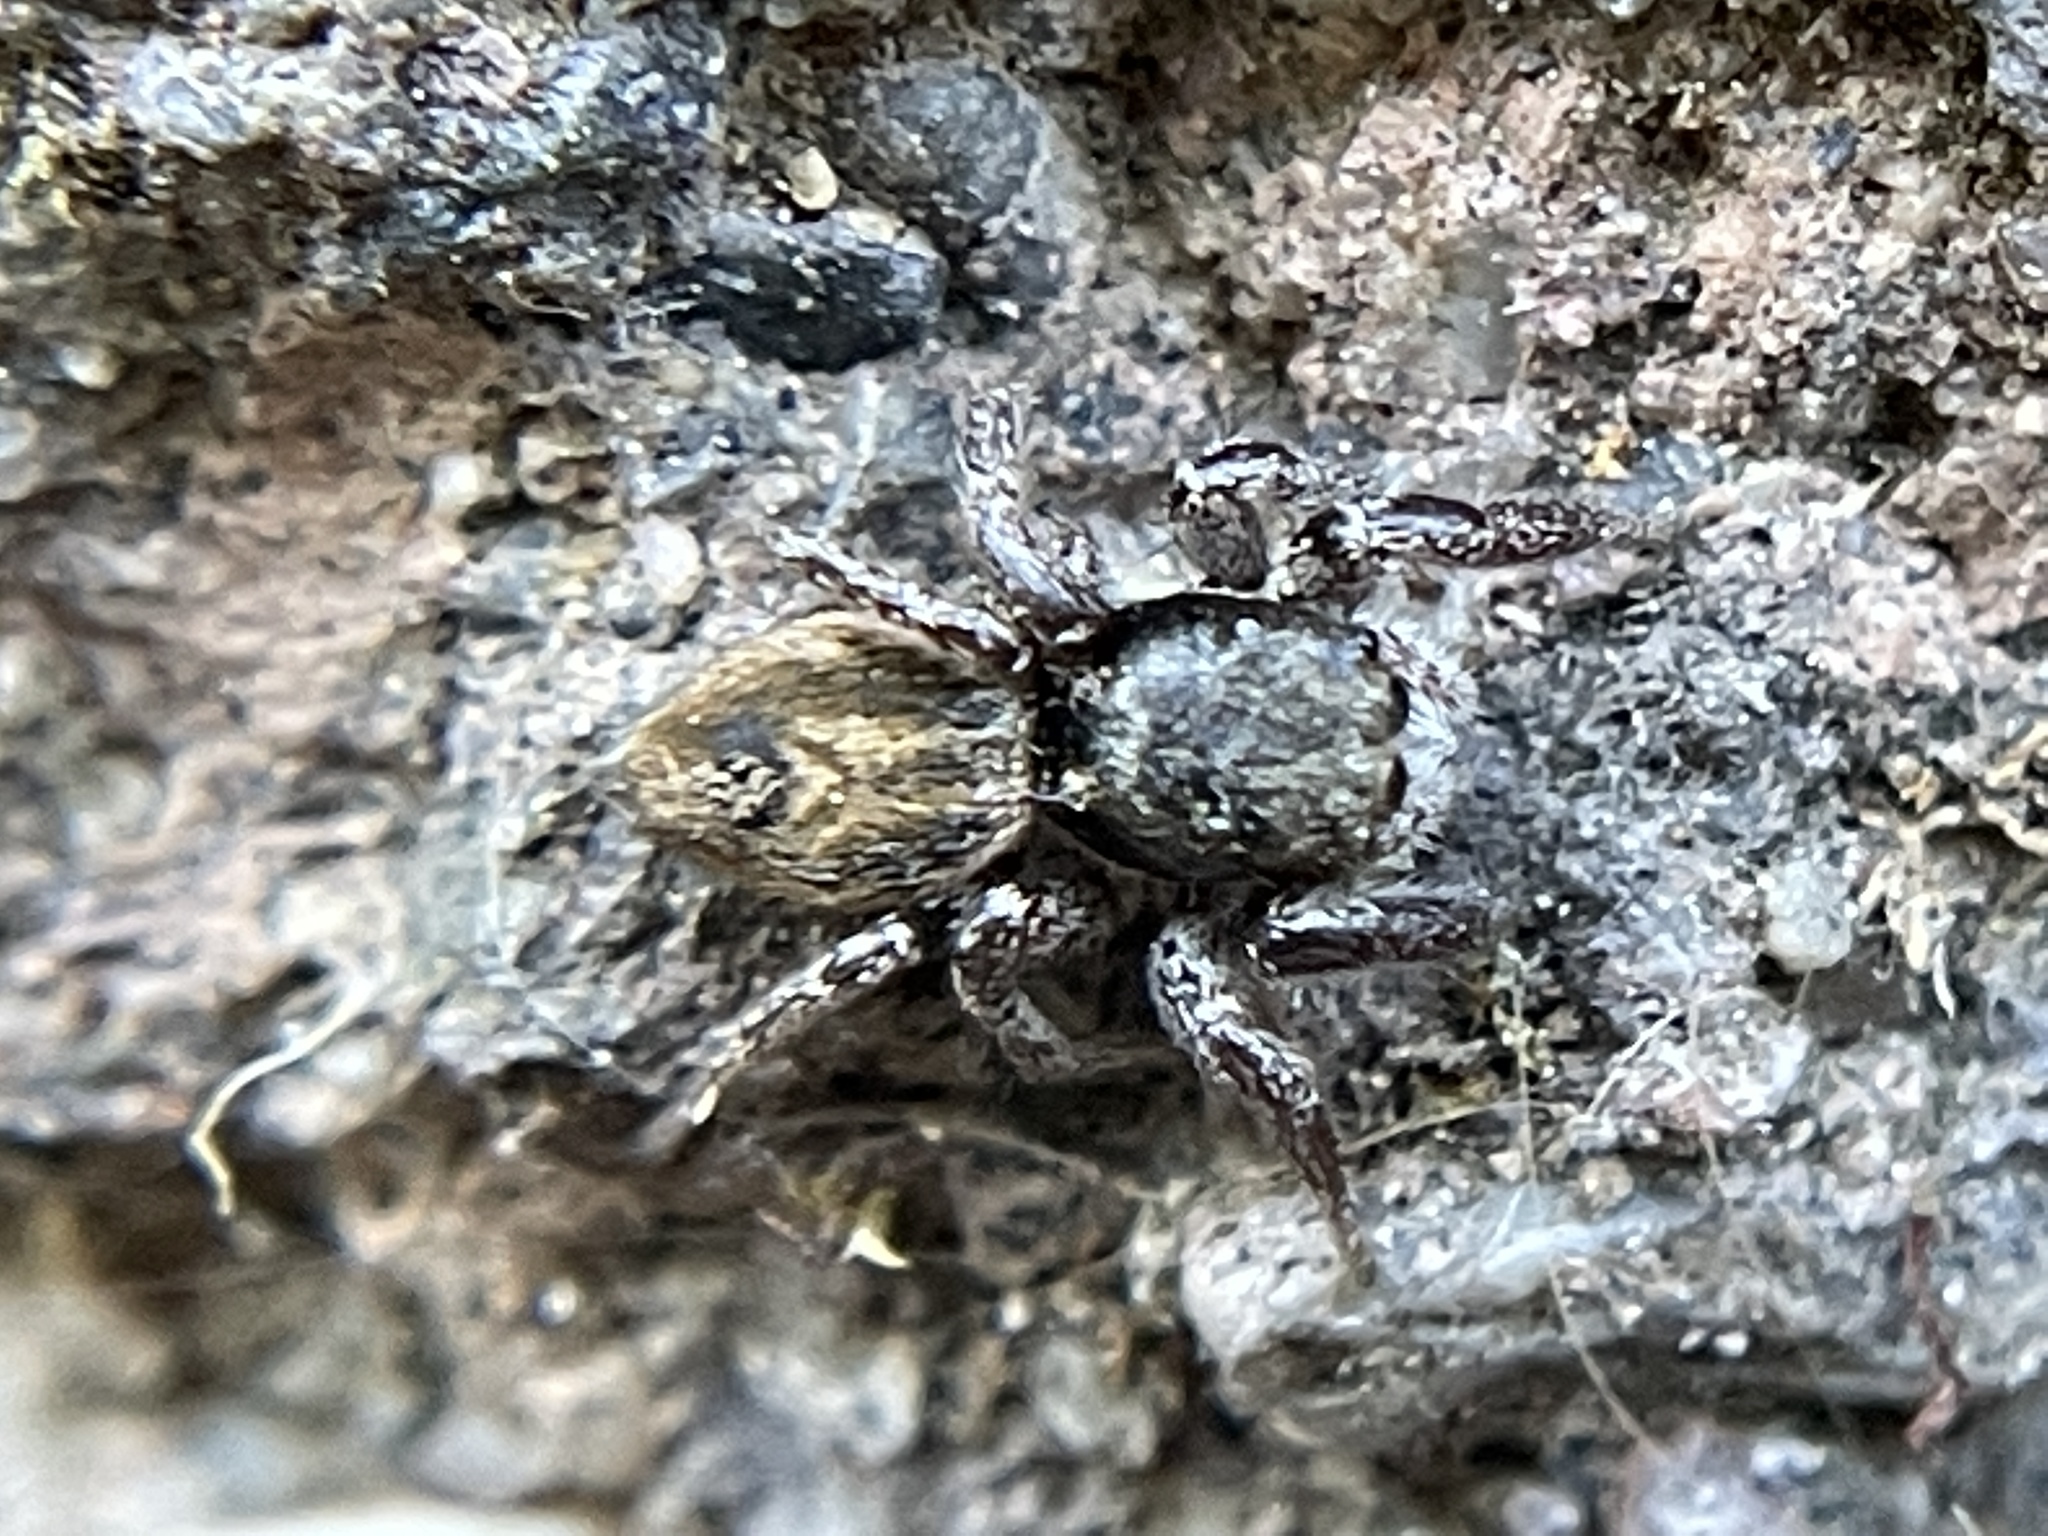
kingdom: Animalia
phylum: Arthropoda
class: Arachnida
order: Araneae
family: Salticidae
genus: Habronattus
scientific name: Habronattus pyrrithrix
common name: Jumping spider
